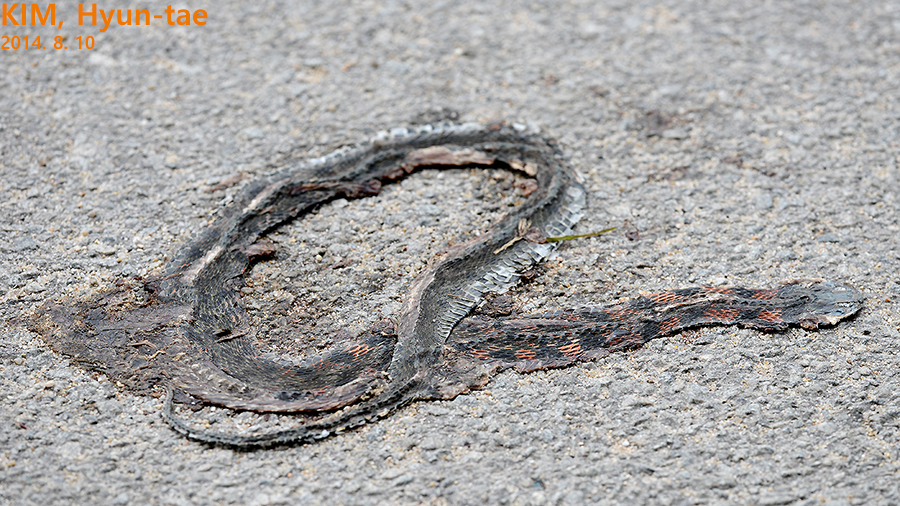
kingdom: Animalia
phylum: Chordata
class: Squamata
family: Colubridae
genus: Rhabdophis
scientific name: Rhabdophis tigrinus
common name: Tiger keelback
